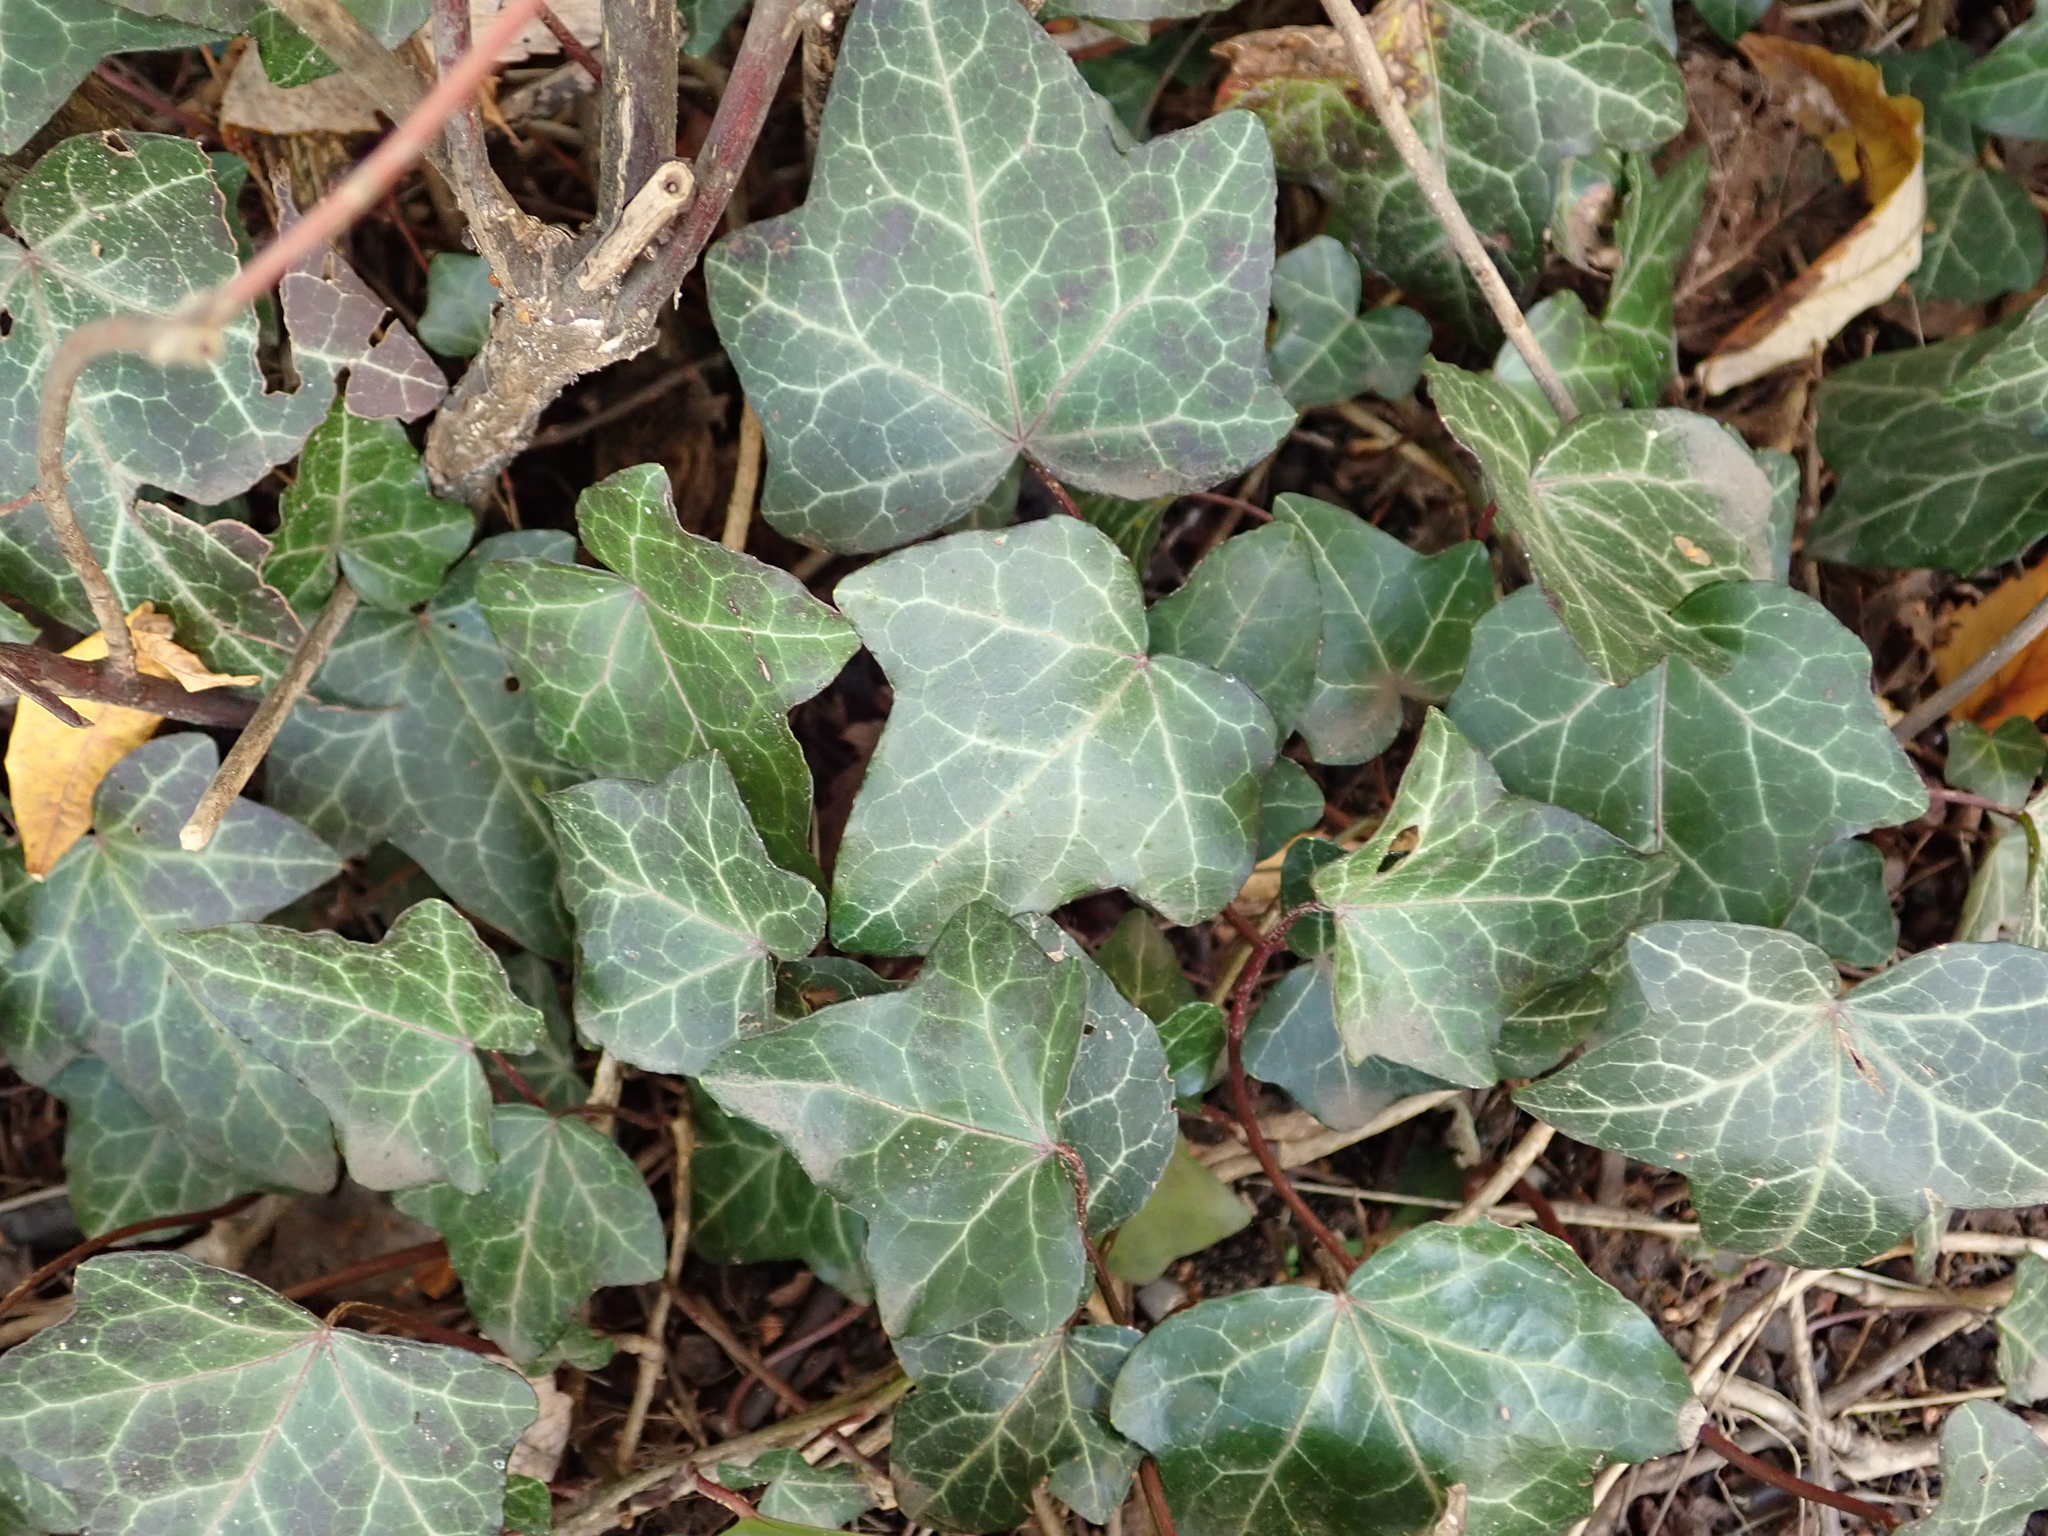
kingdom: Plantae
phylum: Tracheophyta
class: Magnoliopsida
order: Apiales
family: Araliaceae
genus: Hedera
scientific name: Hedera helix
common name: Ivy
